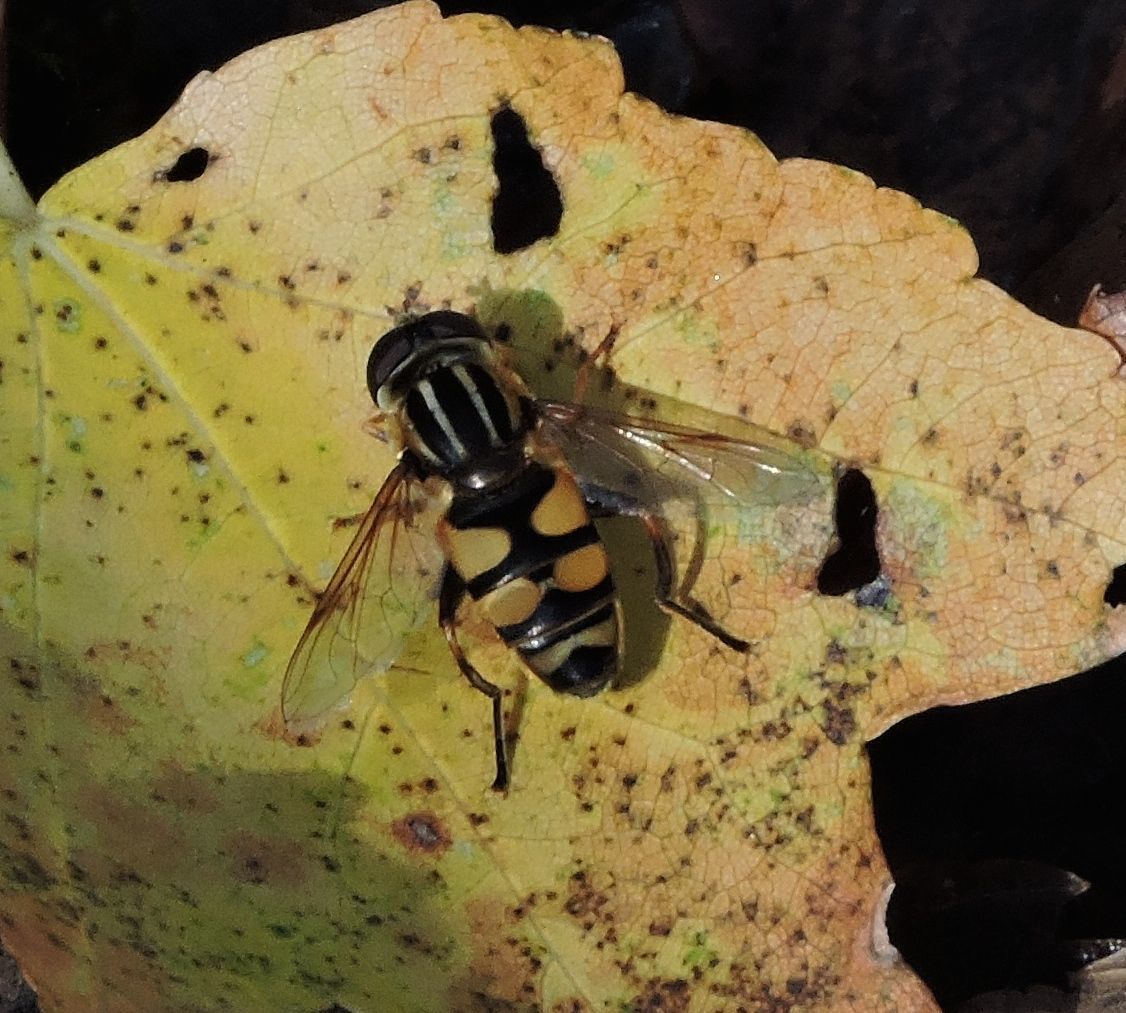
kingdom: Animalia
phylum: Arthropoda
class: Insecta
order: Diptera
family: Syrphidae
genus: Helophilus
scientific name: Helophilus fasciatus
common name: Narrow-headed marsh fly
